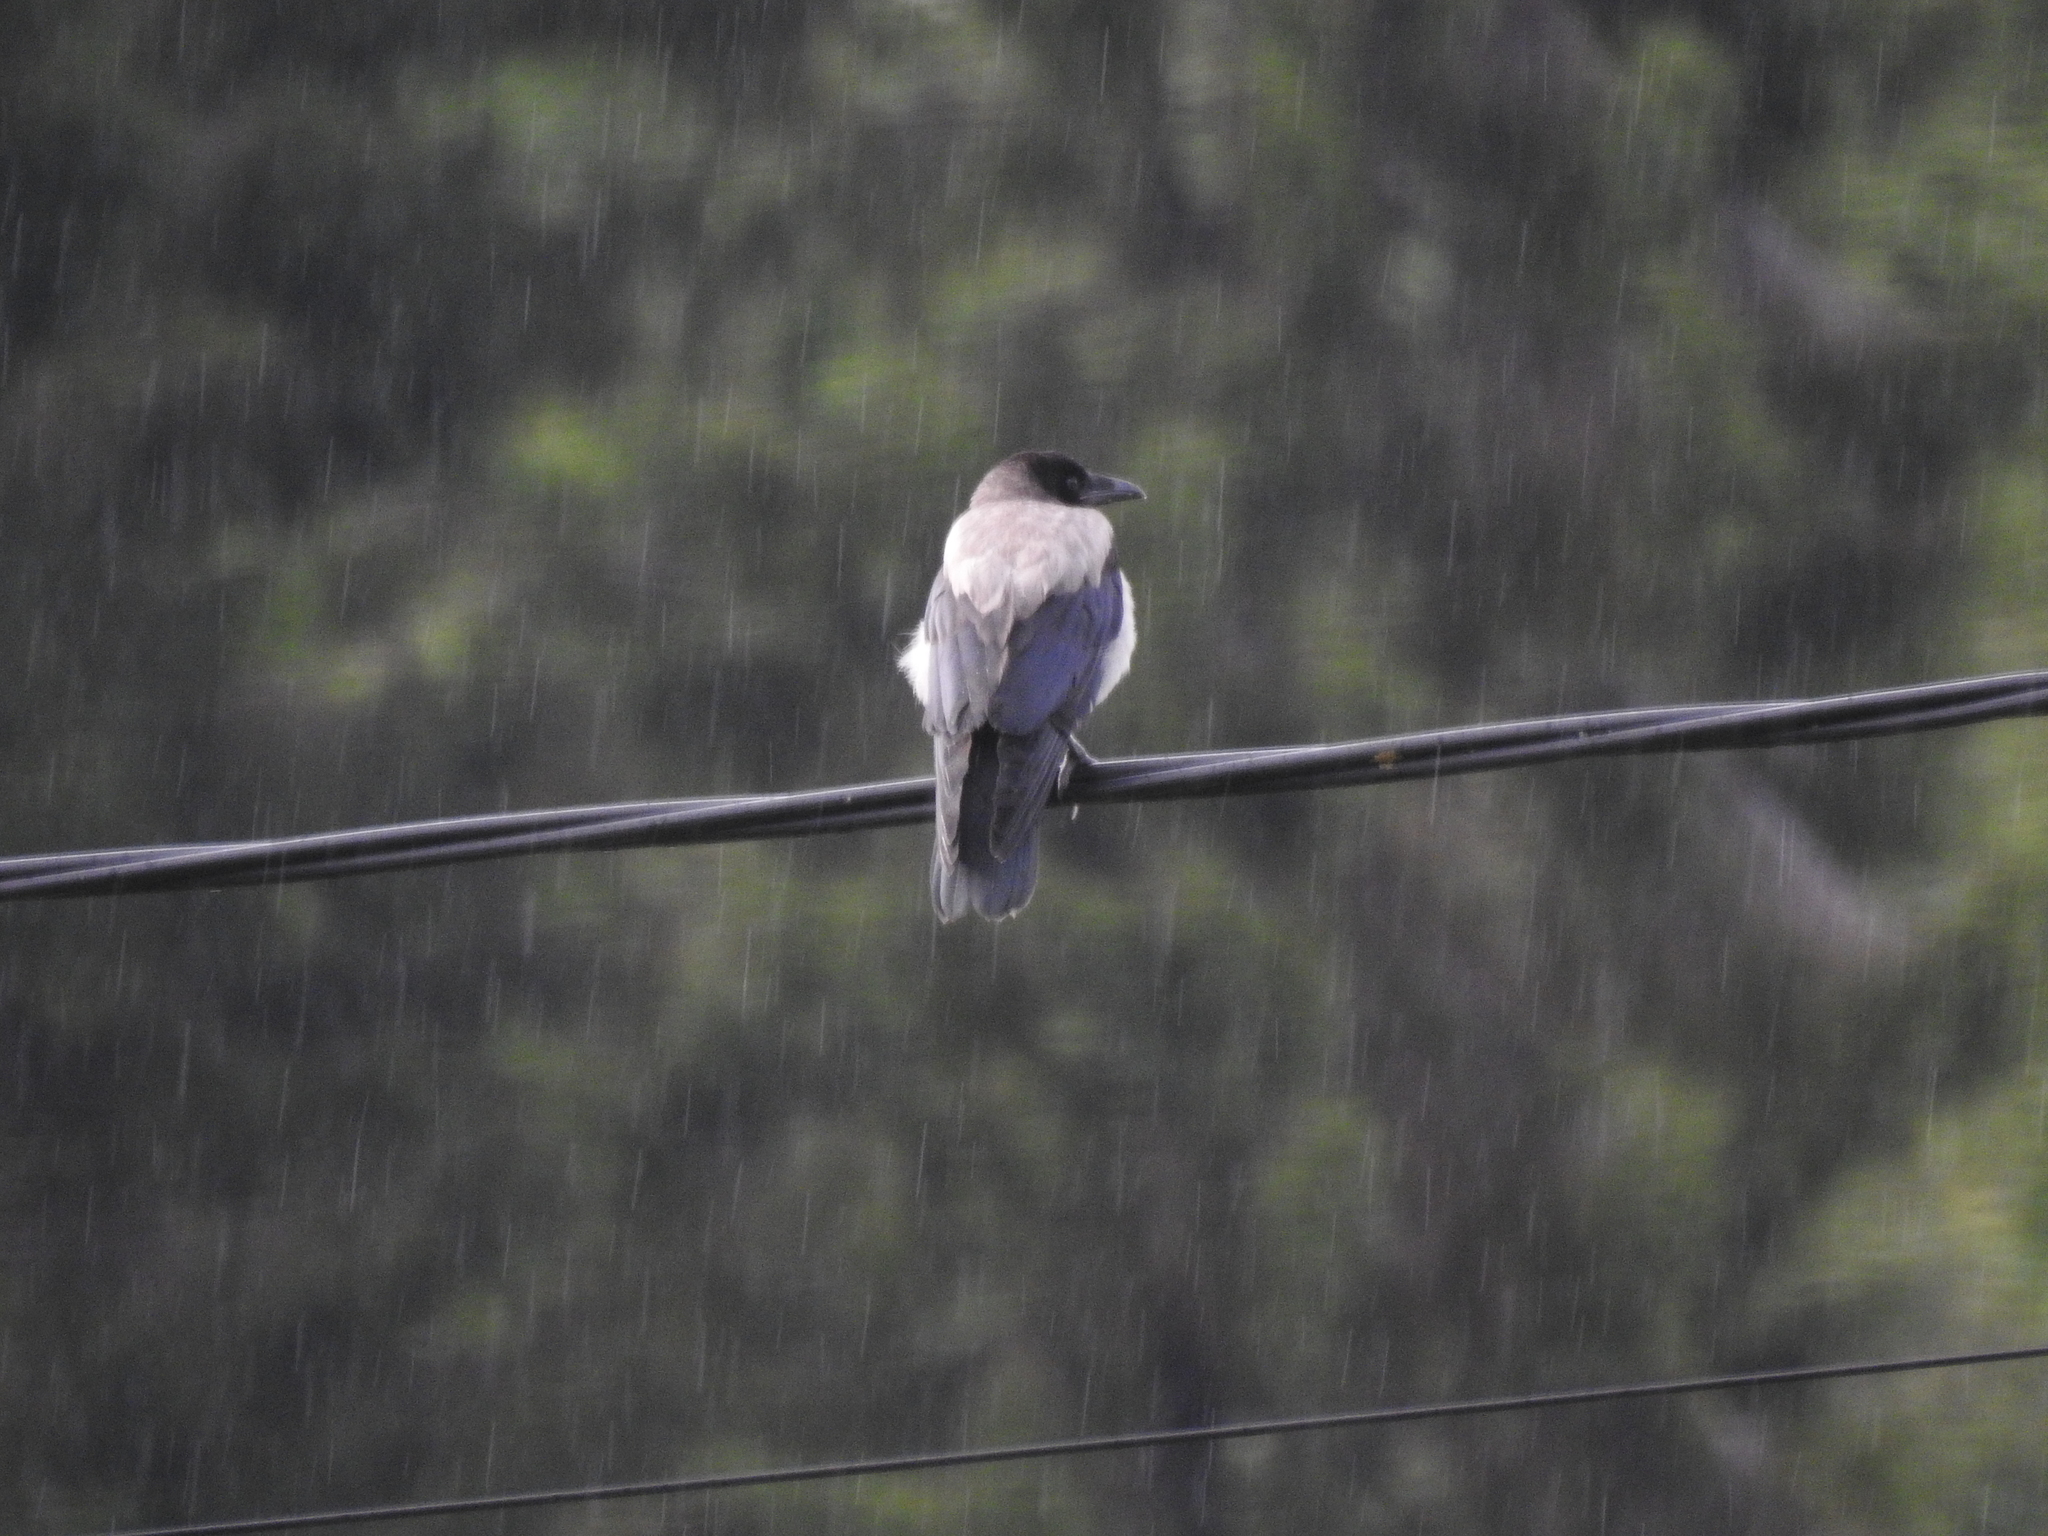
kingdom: Animalia
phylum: Chordata
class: Aves
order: Passeriformes
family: Corvidae
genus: Corvus
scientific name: Corvus cornix
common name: Hooded crow
